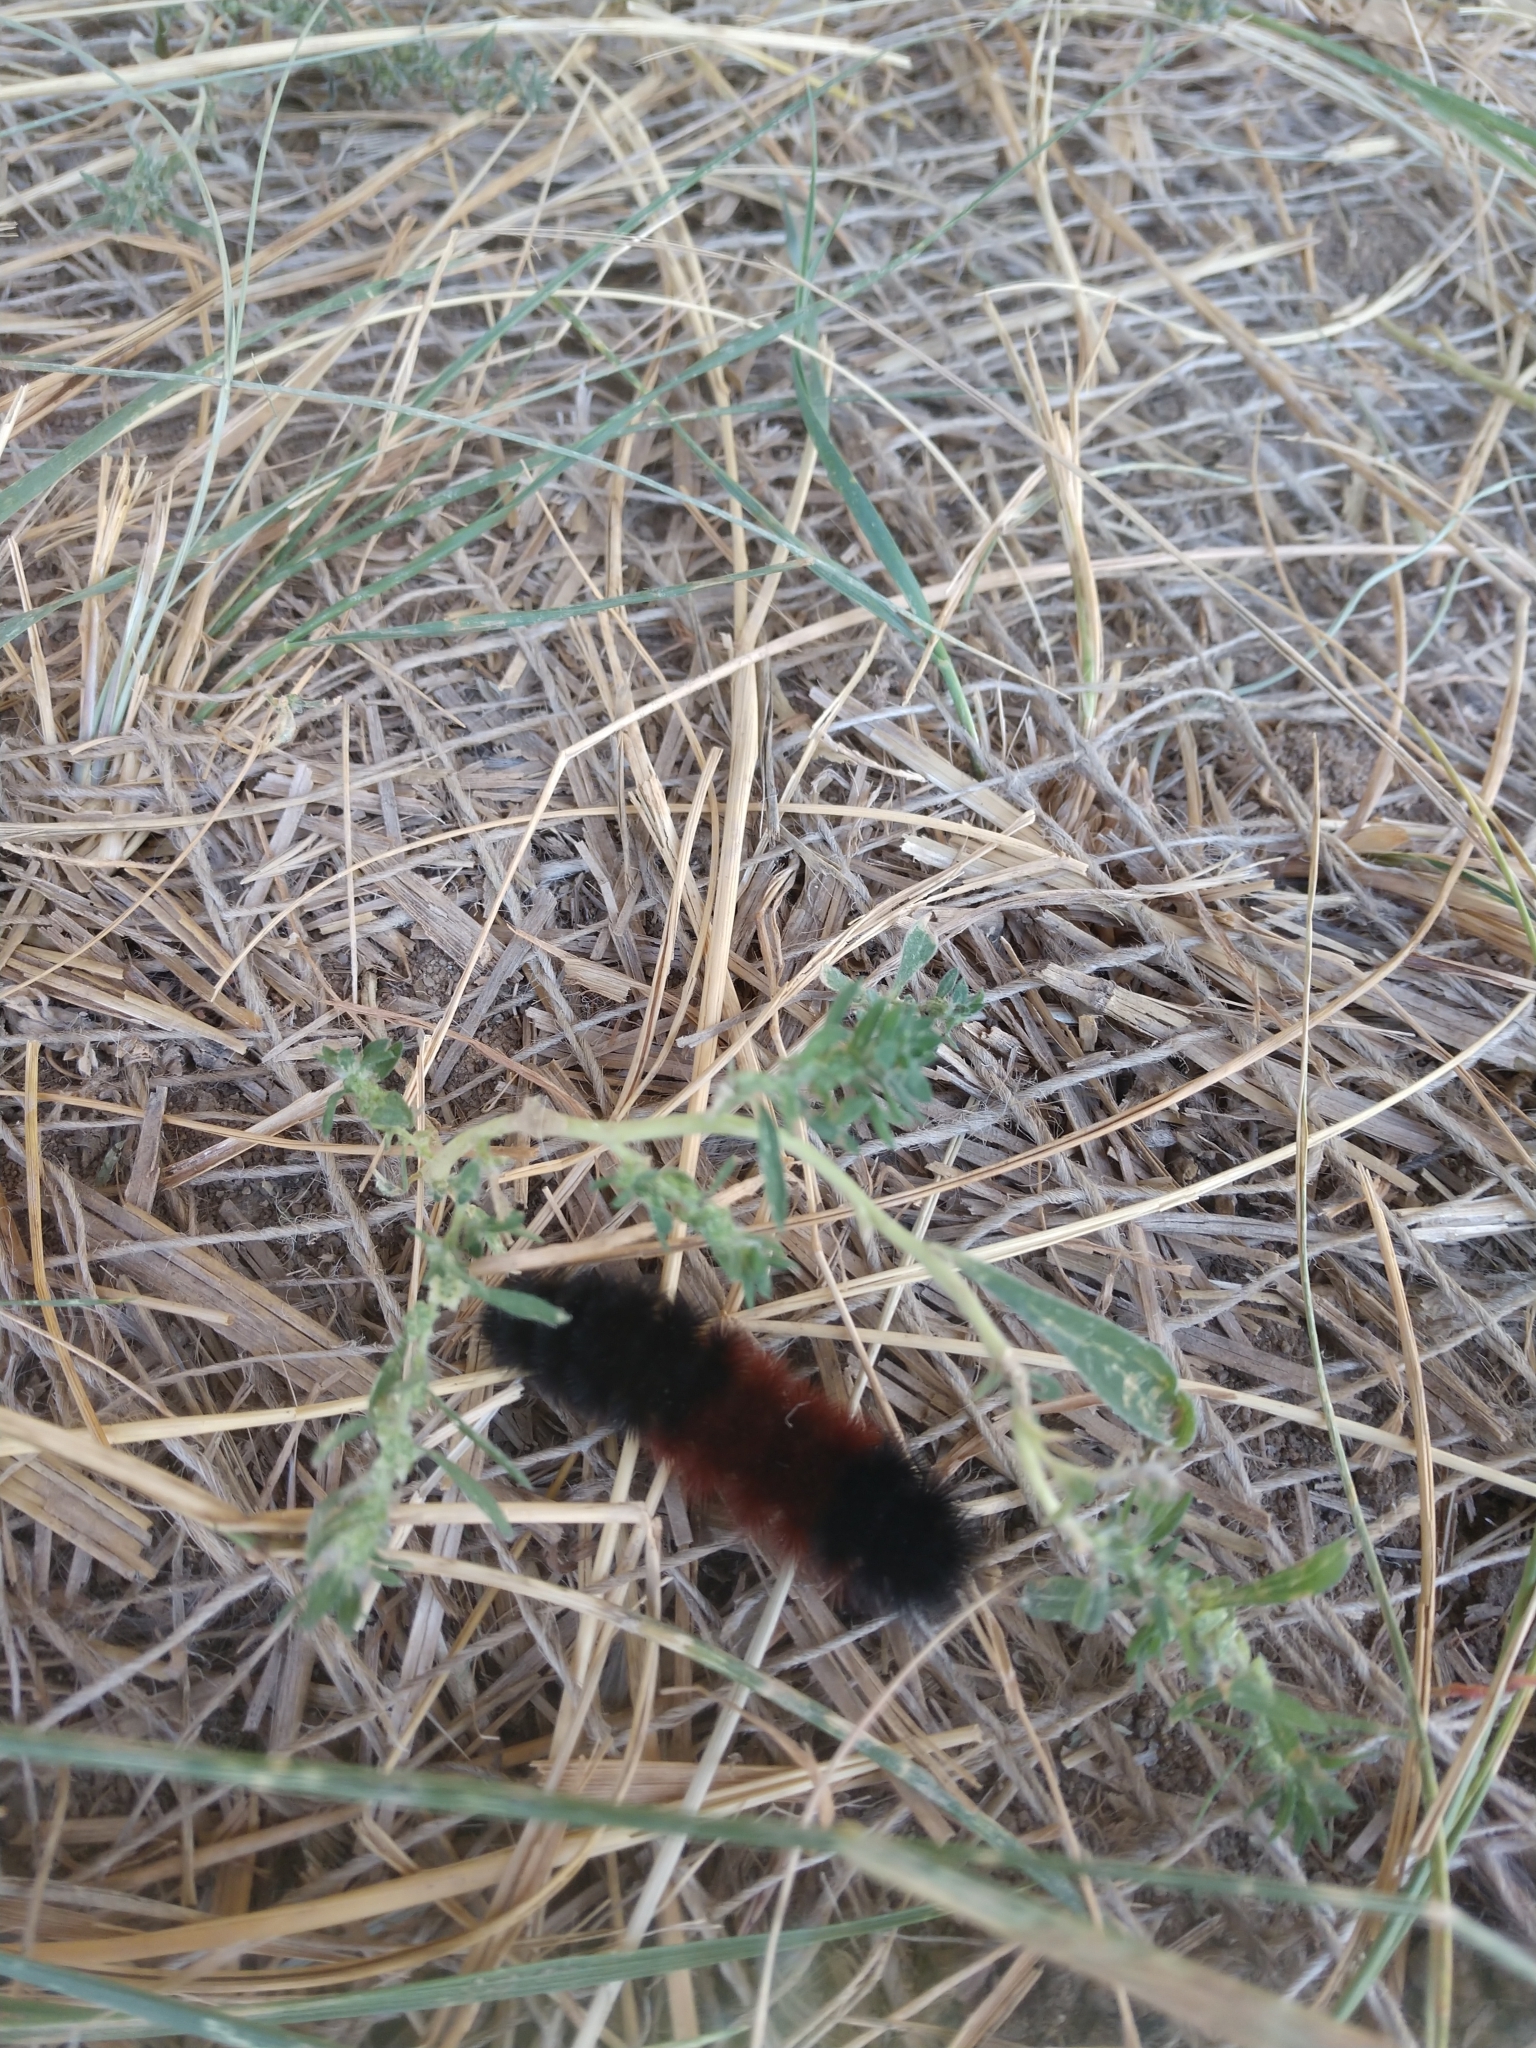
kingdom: Animalia
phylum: Arthropoda
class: Insecta
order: Lepidoptera
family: Erebidae
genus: Pyrrharctia
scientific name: Pyrrharctia isabella
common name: Isabella tiger moth
